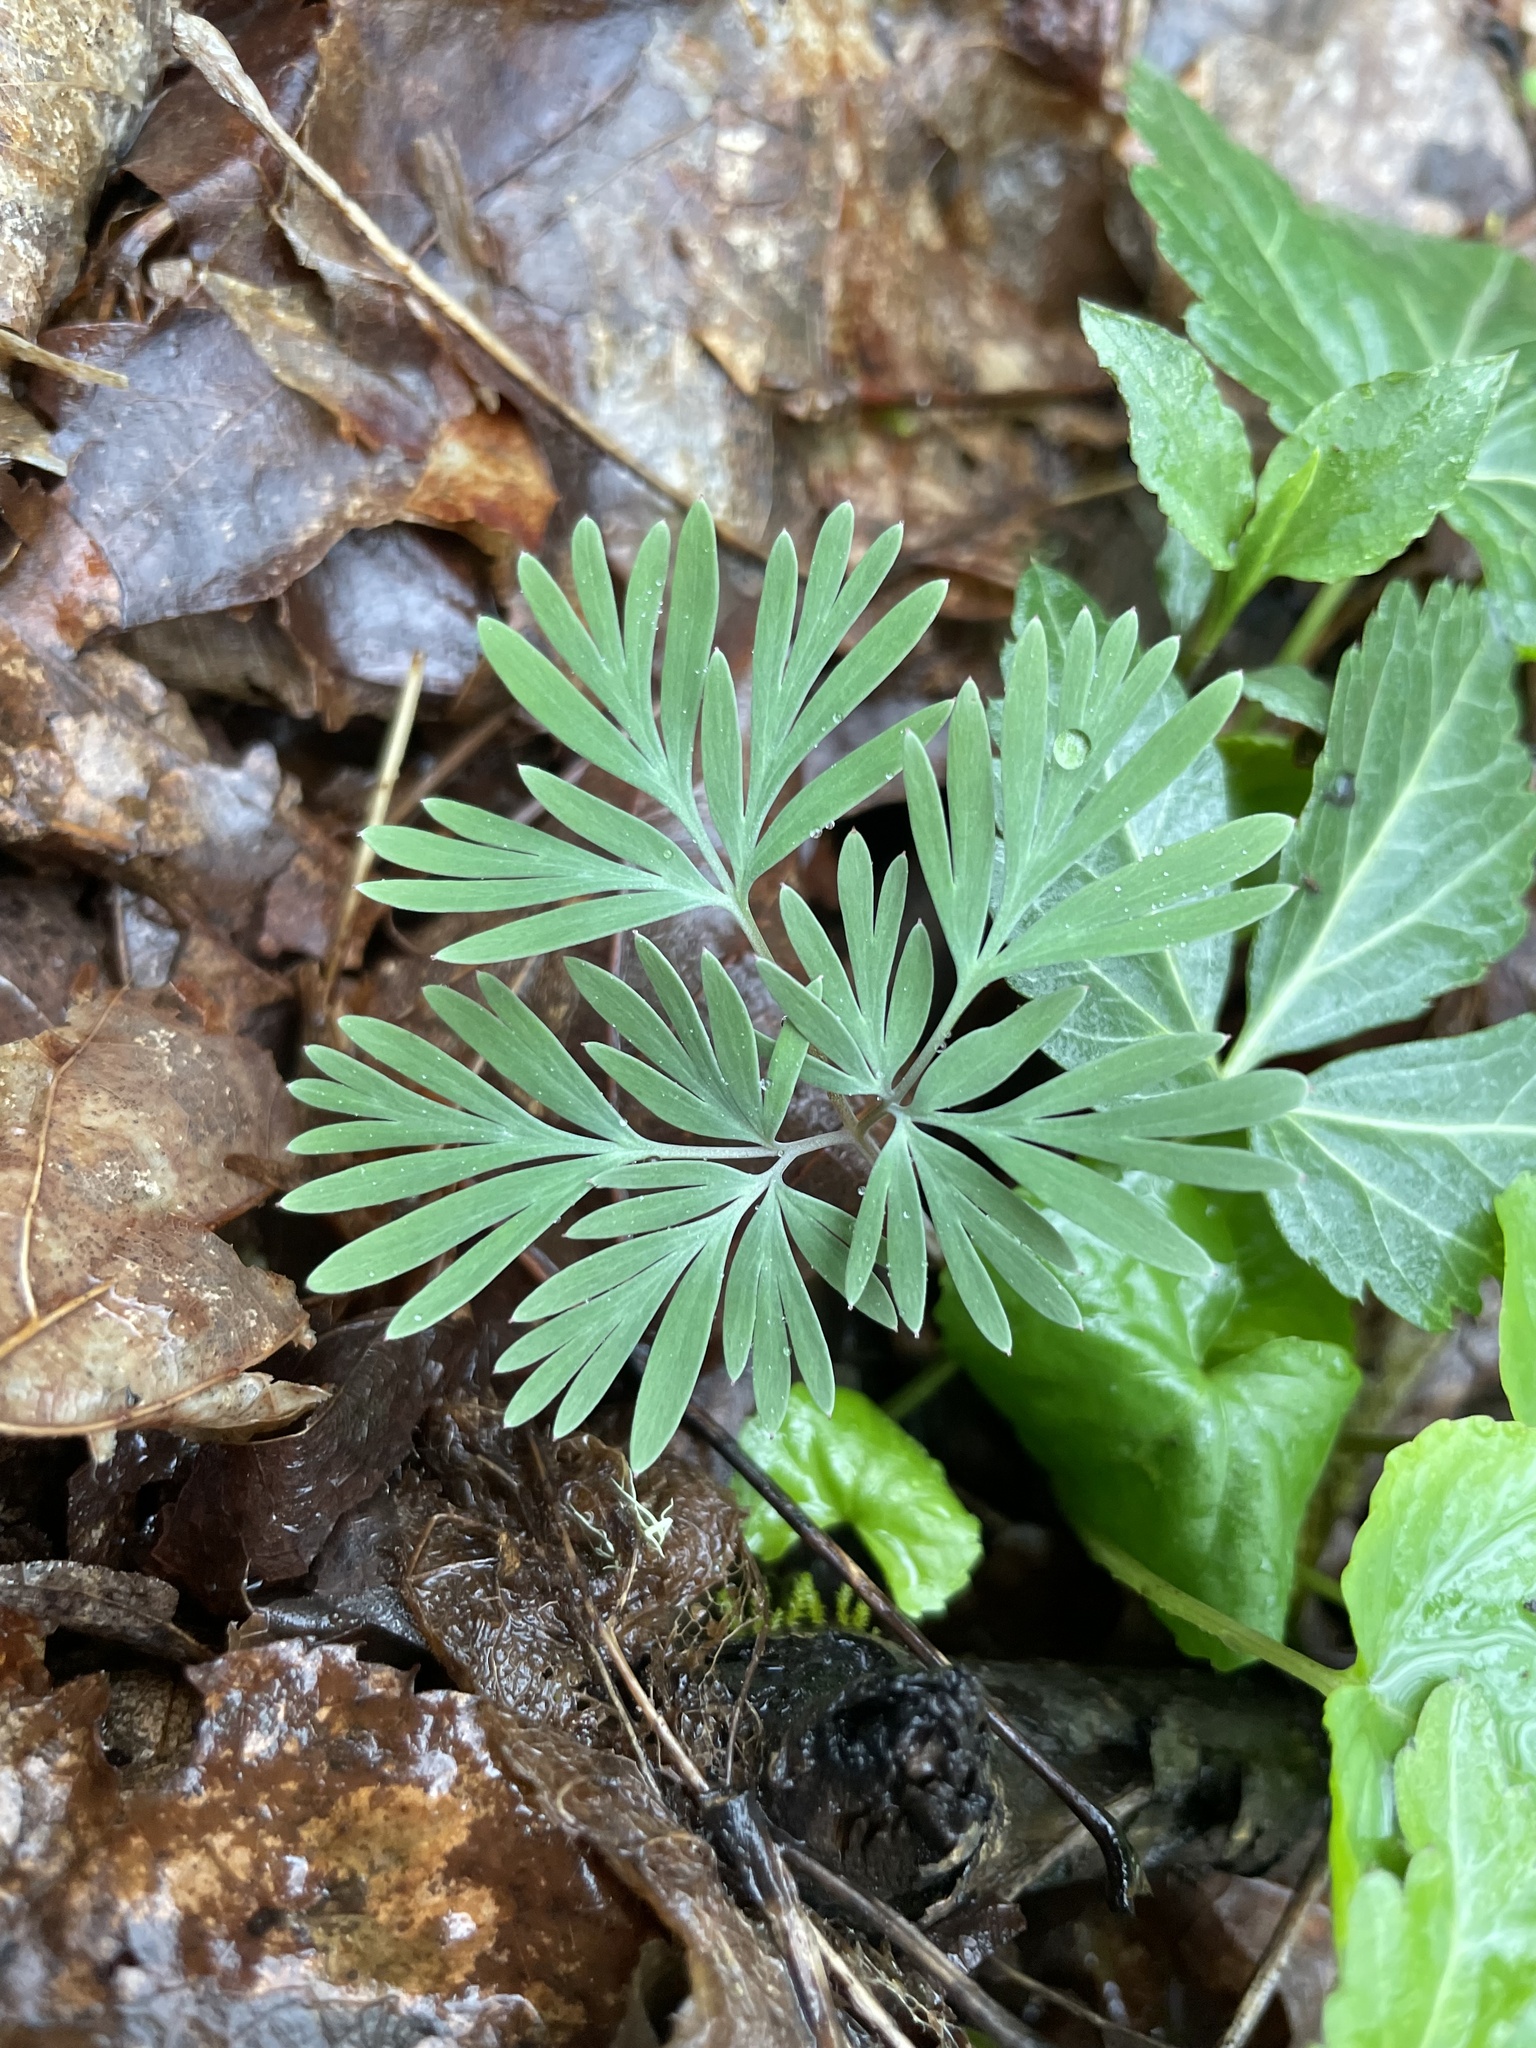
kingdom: Plantae
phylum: Tracheophyta
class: Magnoliopsida
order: Ranunculales
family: Papaveraceae
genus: Dicentra
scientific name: Dicentra cucullaria
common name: Dutchman's breeches
